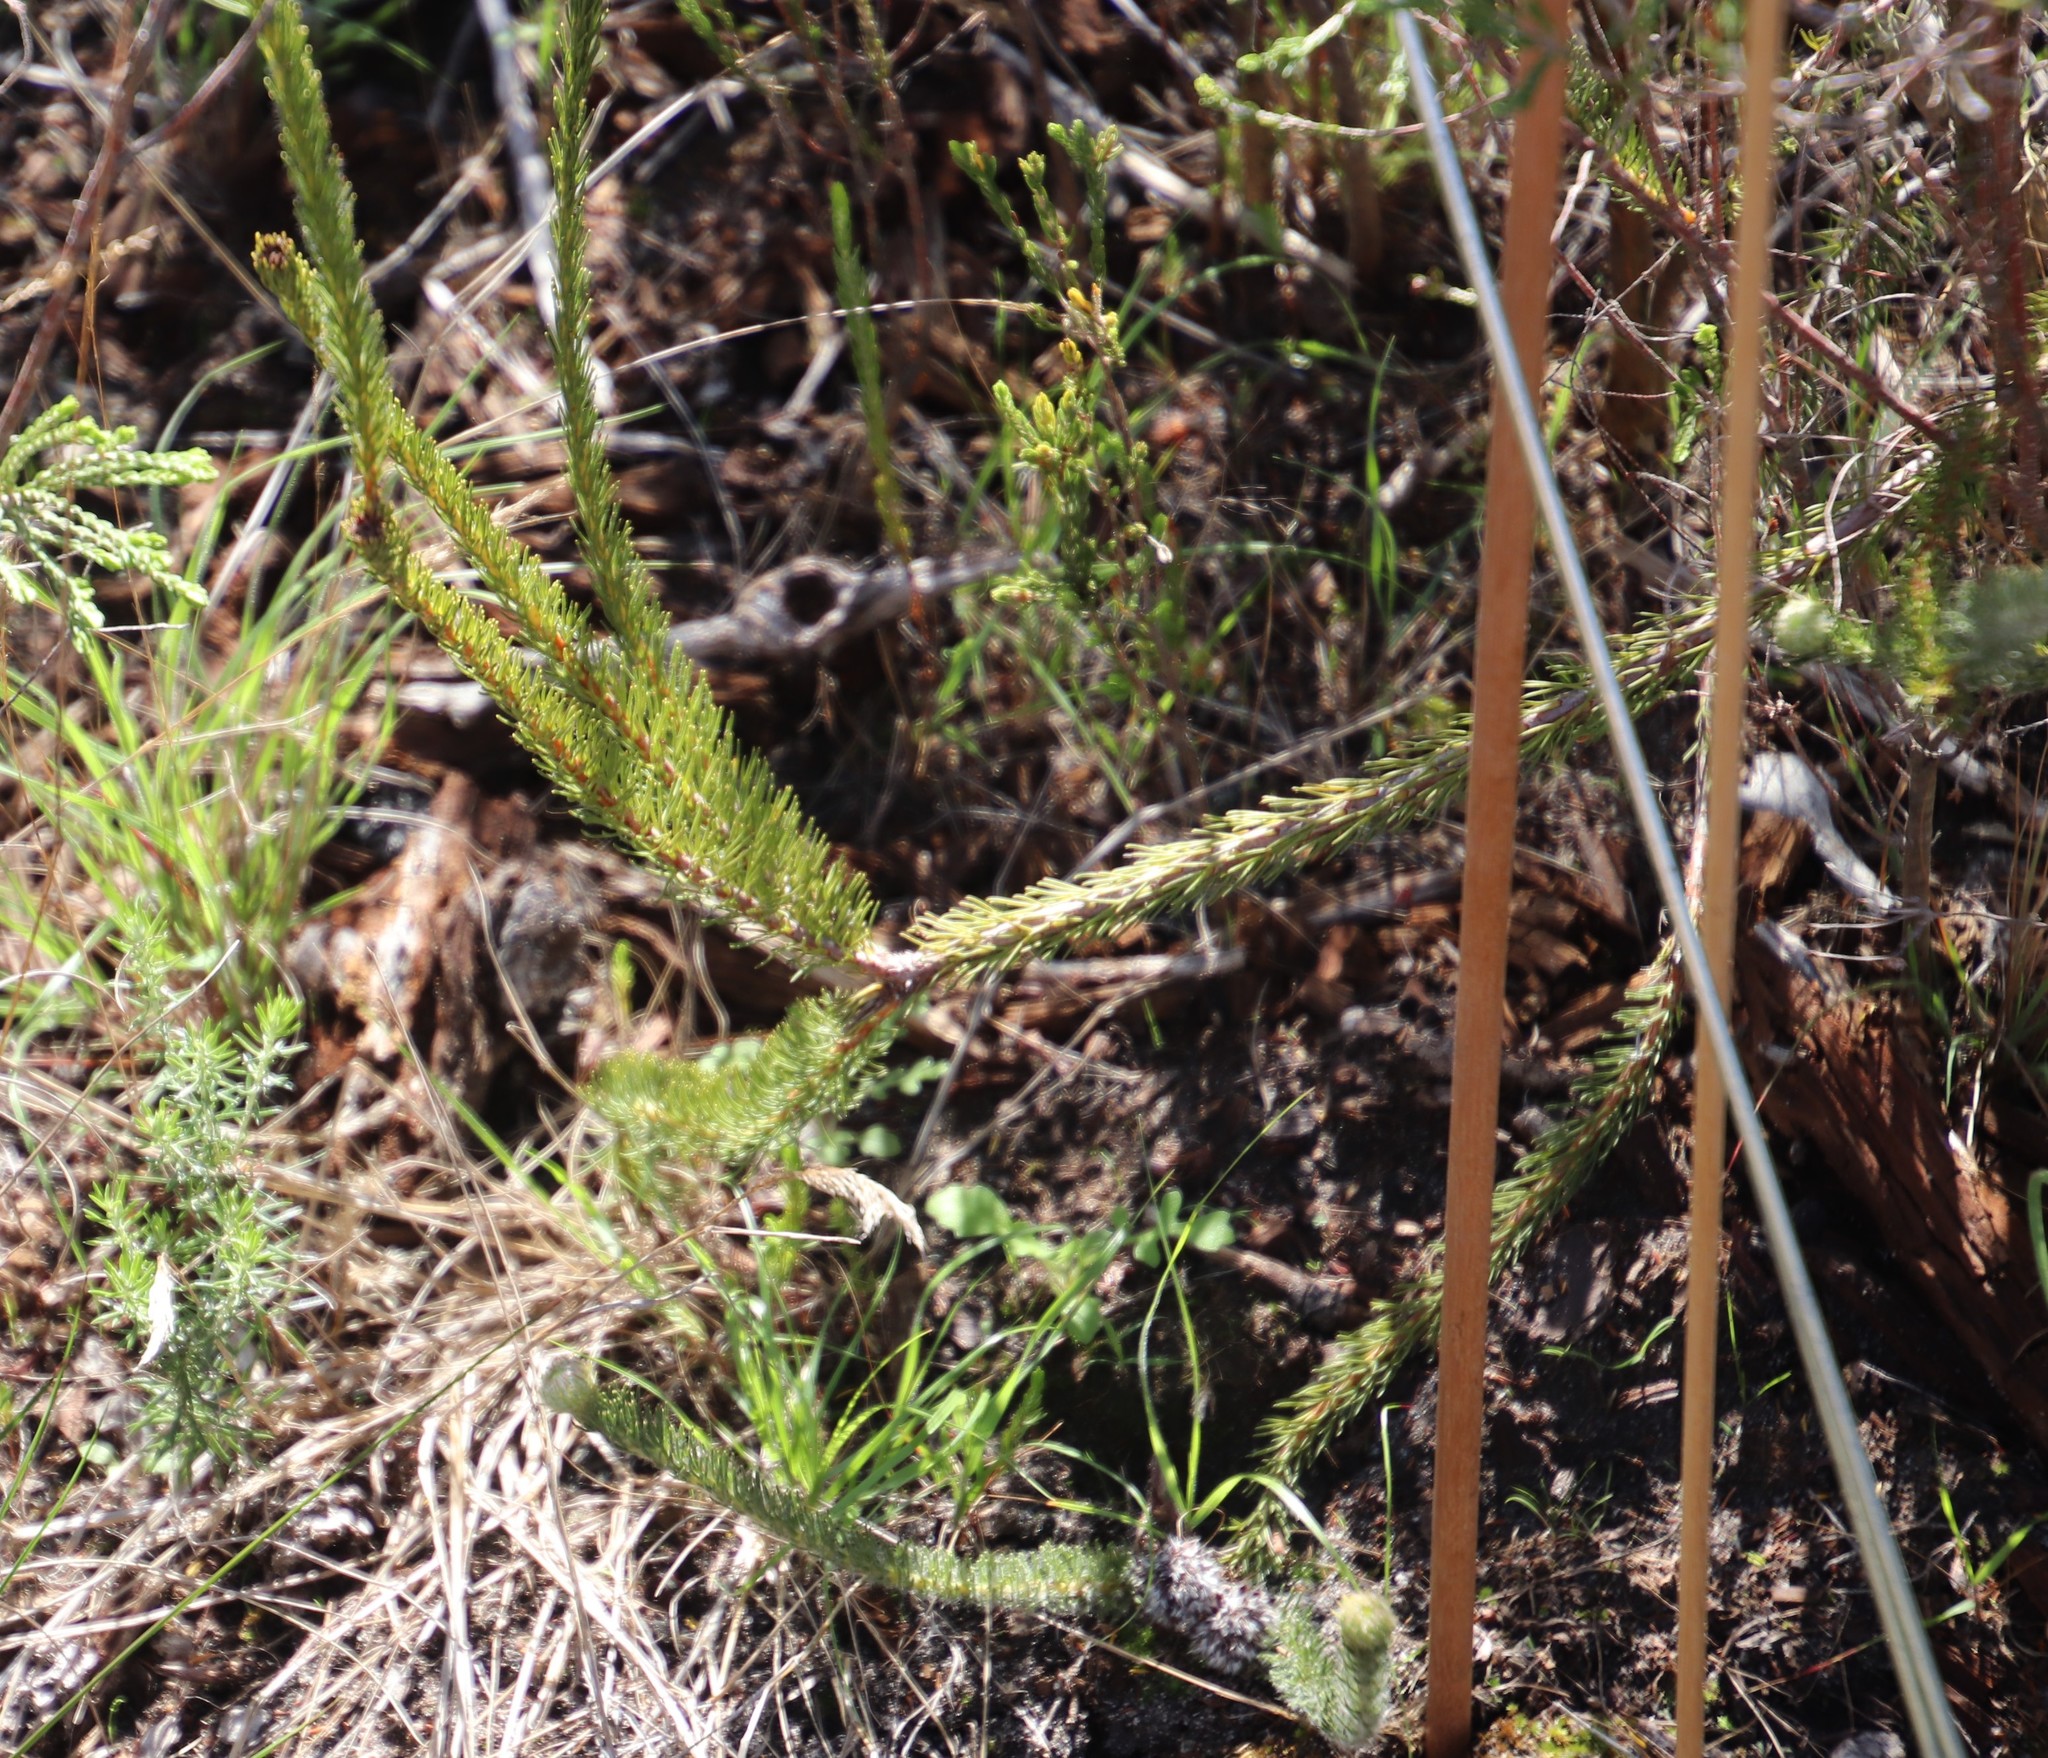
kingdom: Plantae
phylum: Tracheophyta
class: Magnoliopsida
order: Proteales
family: Proteaceae
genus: Serruria
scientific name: Serruria trilopha
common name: Trident spiderhead
